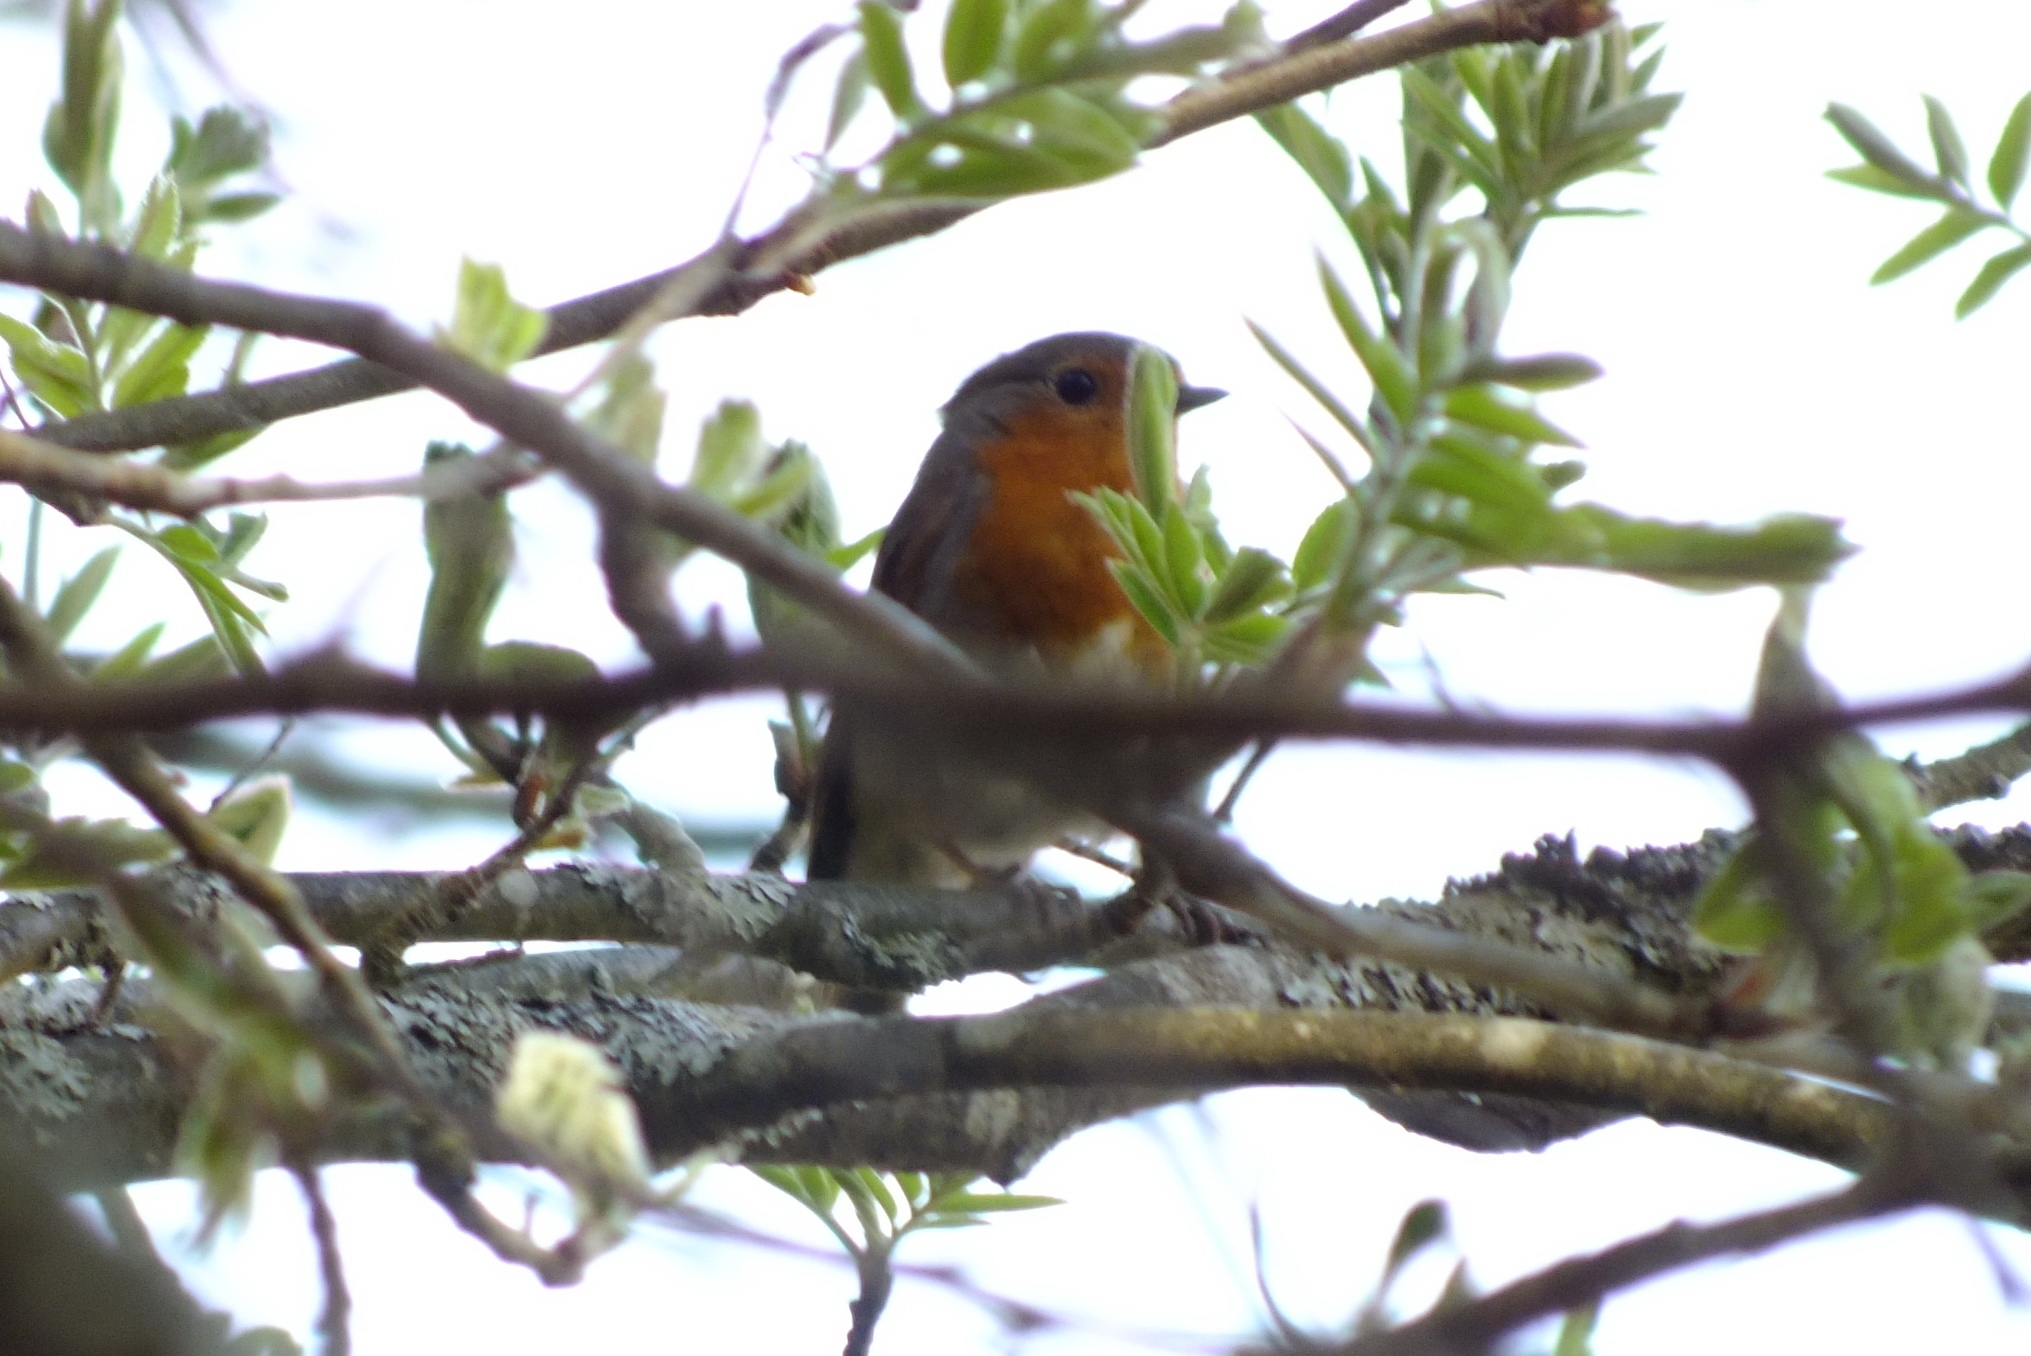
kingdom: Animalia
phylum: Chordata
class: Aves
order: Passeriformes
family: Muscicapidae
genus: Erithacus
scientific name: Erithacus rubecula
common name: European robin
